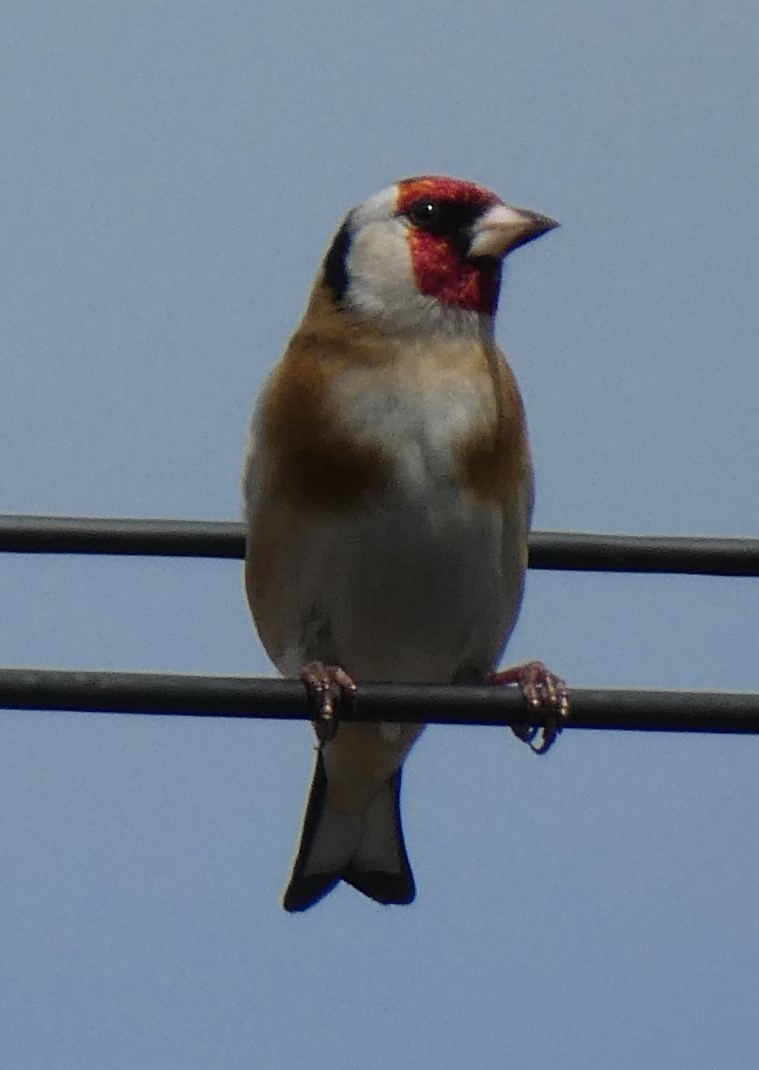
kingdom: Animalia
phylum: Chordata
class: Aves
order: Passeriformes
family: Fringillidae
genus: Carduelis
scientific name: Carduelis carduelis
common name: European goldfinch
